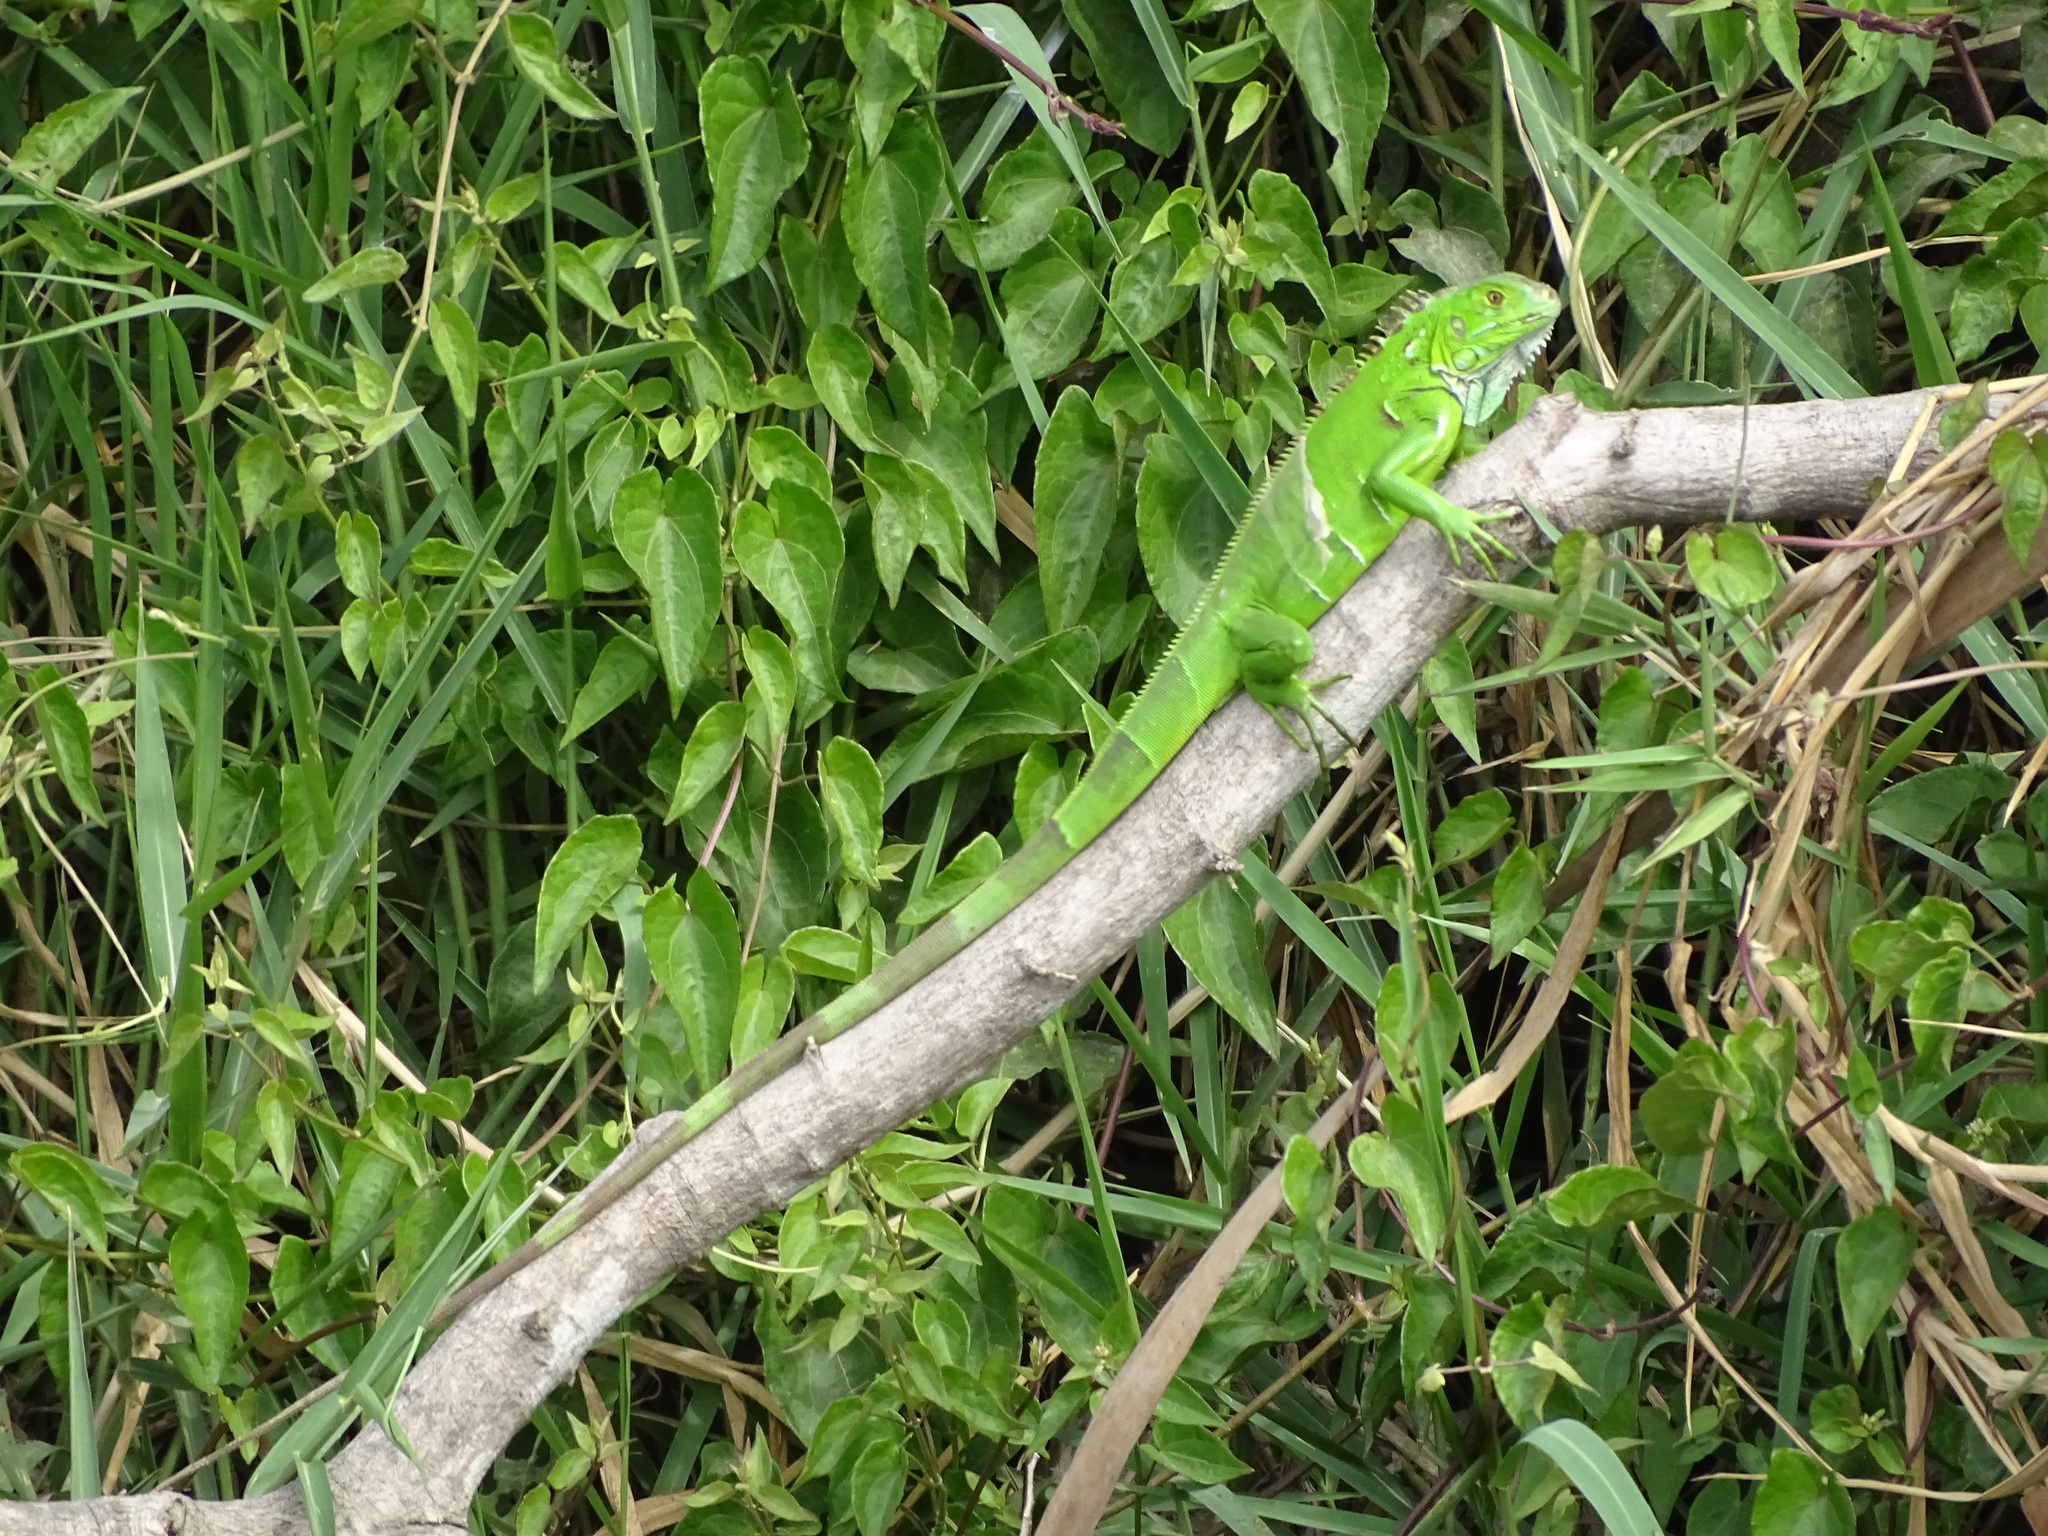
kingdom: Animalia
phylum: Chordata
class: Squamata
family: Iguanidae
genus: Iguana
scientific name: Iguana iguana
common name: Green iguana
